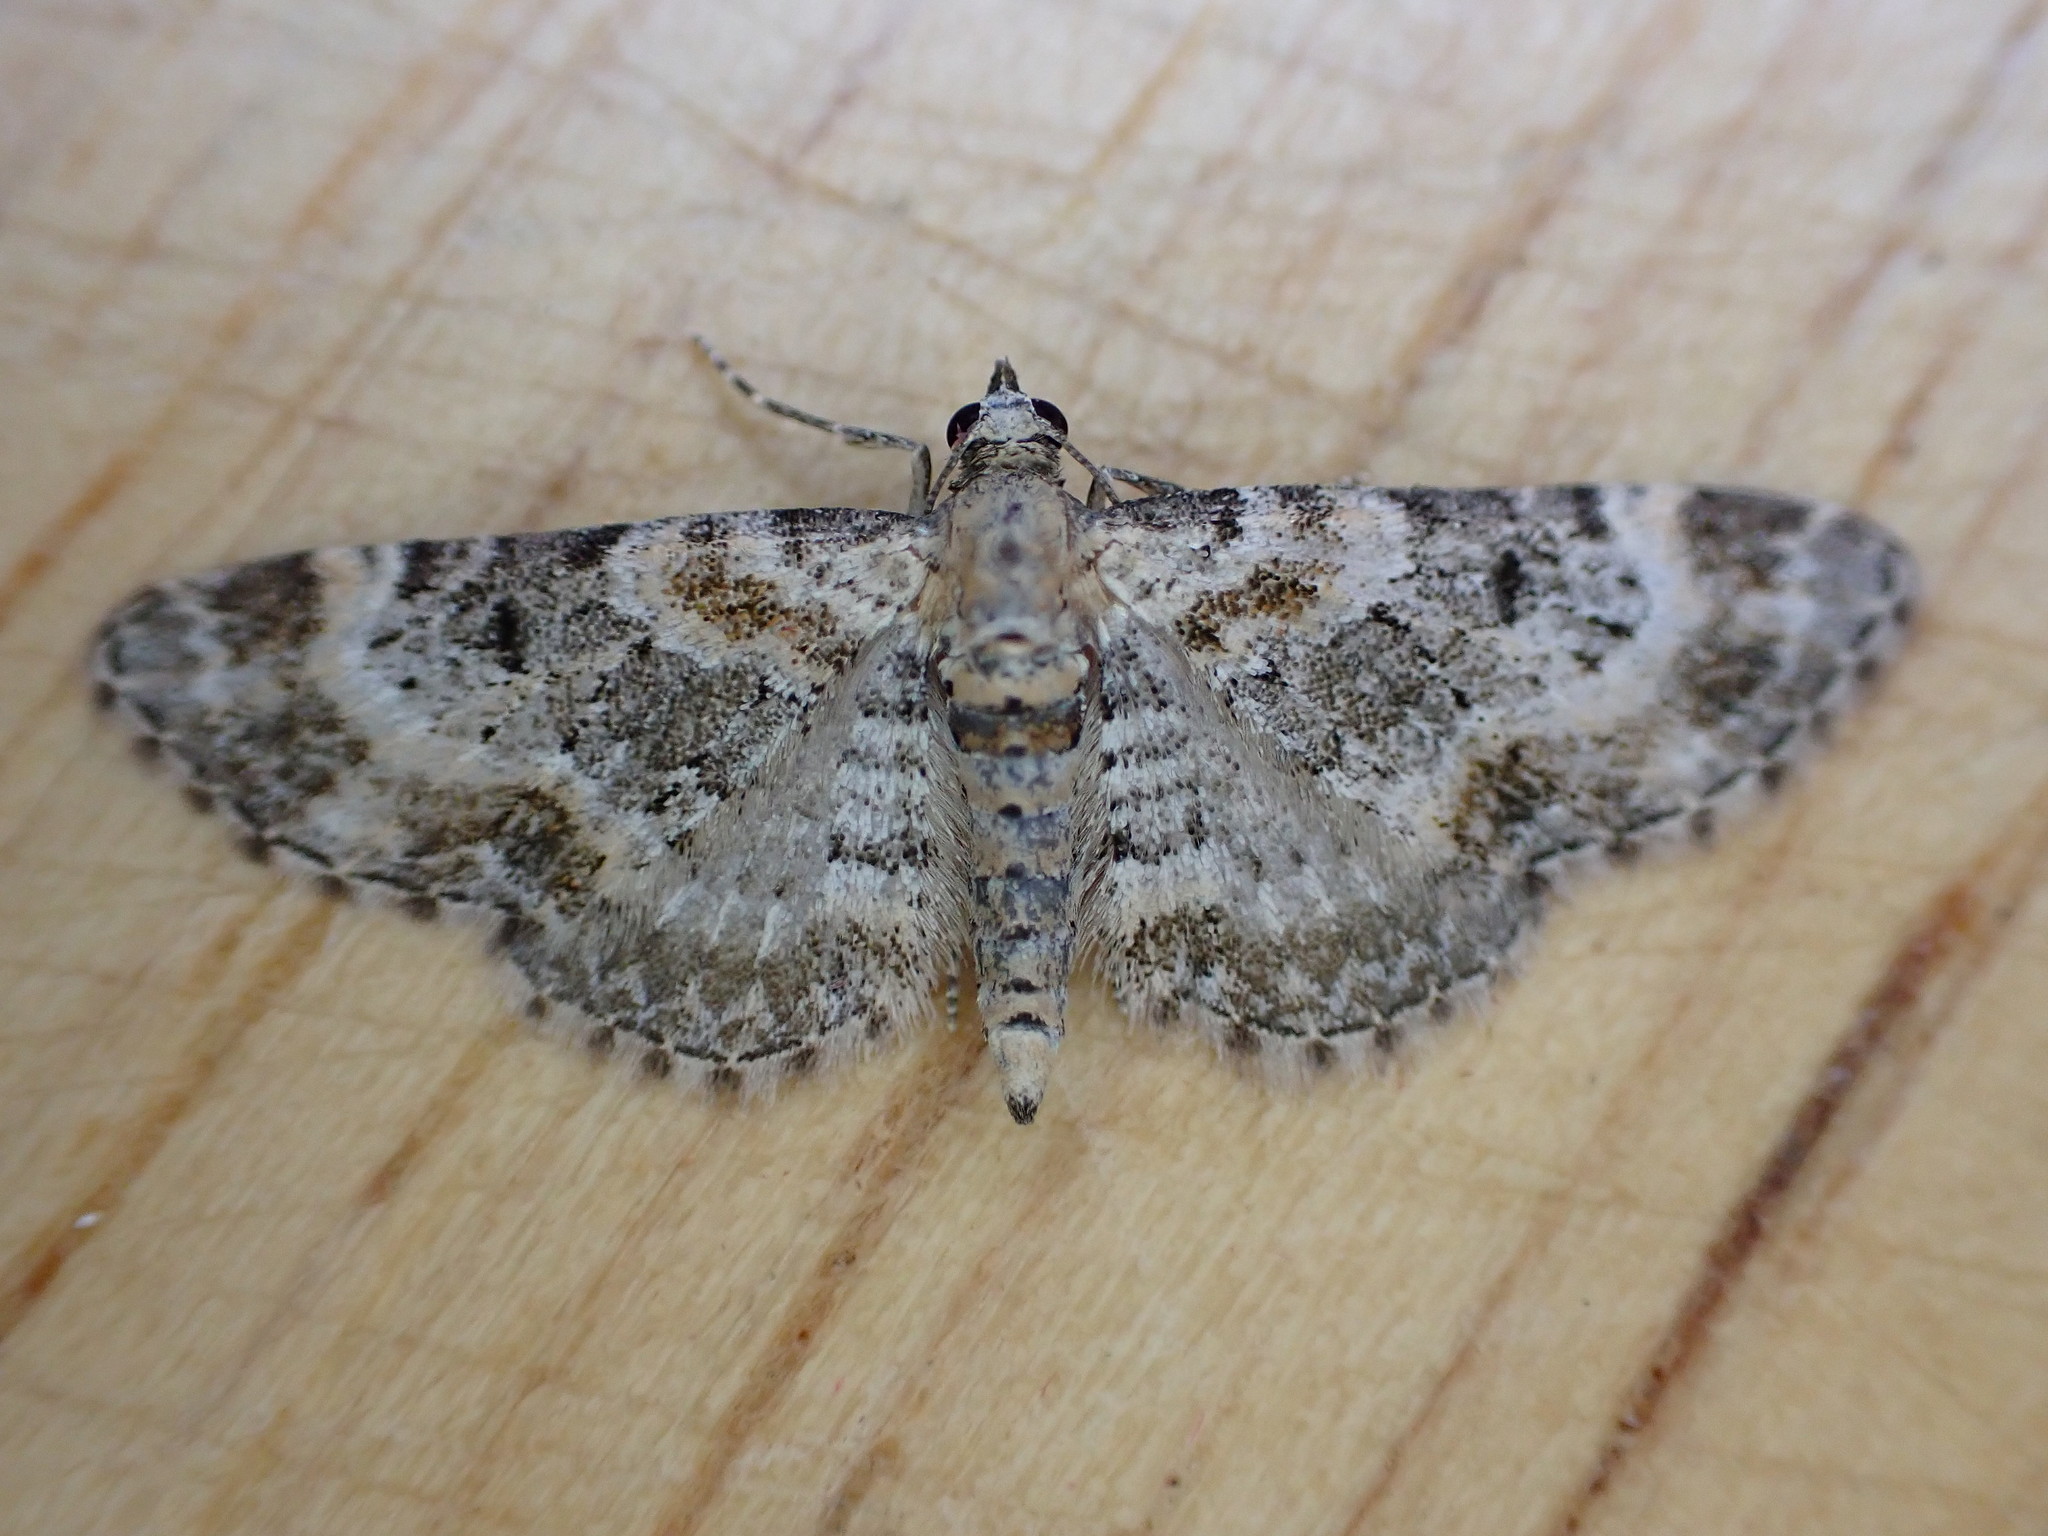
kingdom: Animalia
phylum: Arthropoda
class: Insecta
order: Lepidoptera
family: Geometridae
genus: Eupithecia
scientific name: Eupithecia pulchellata
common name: Foxglove pug
